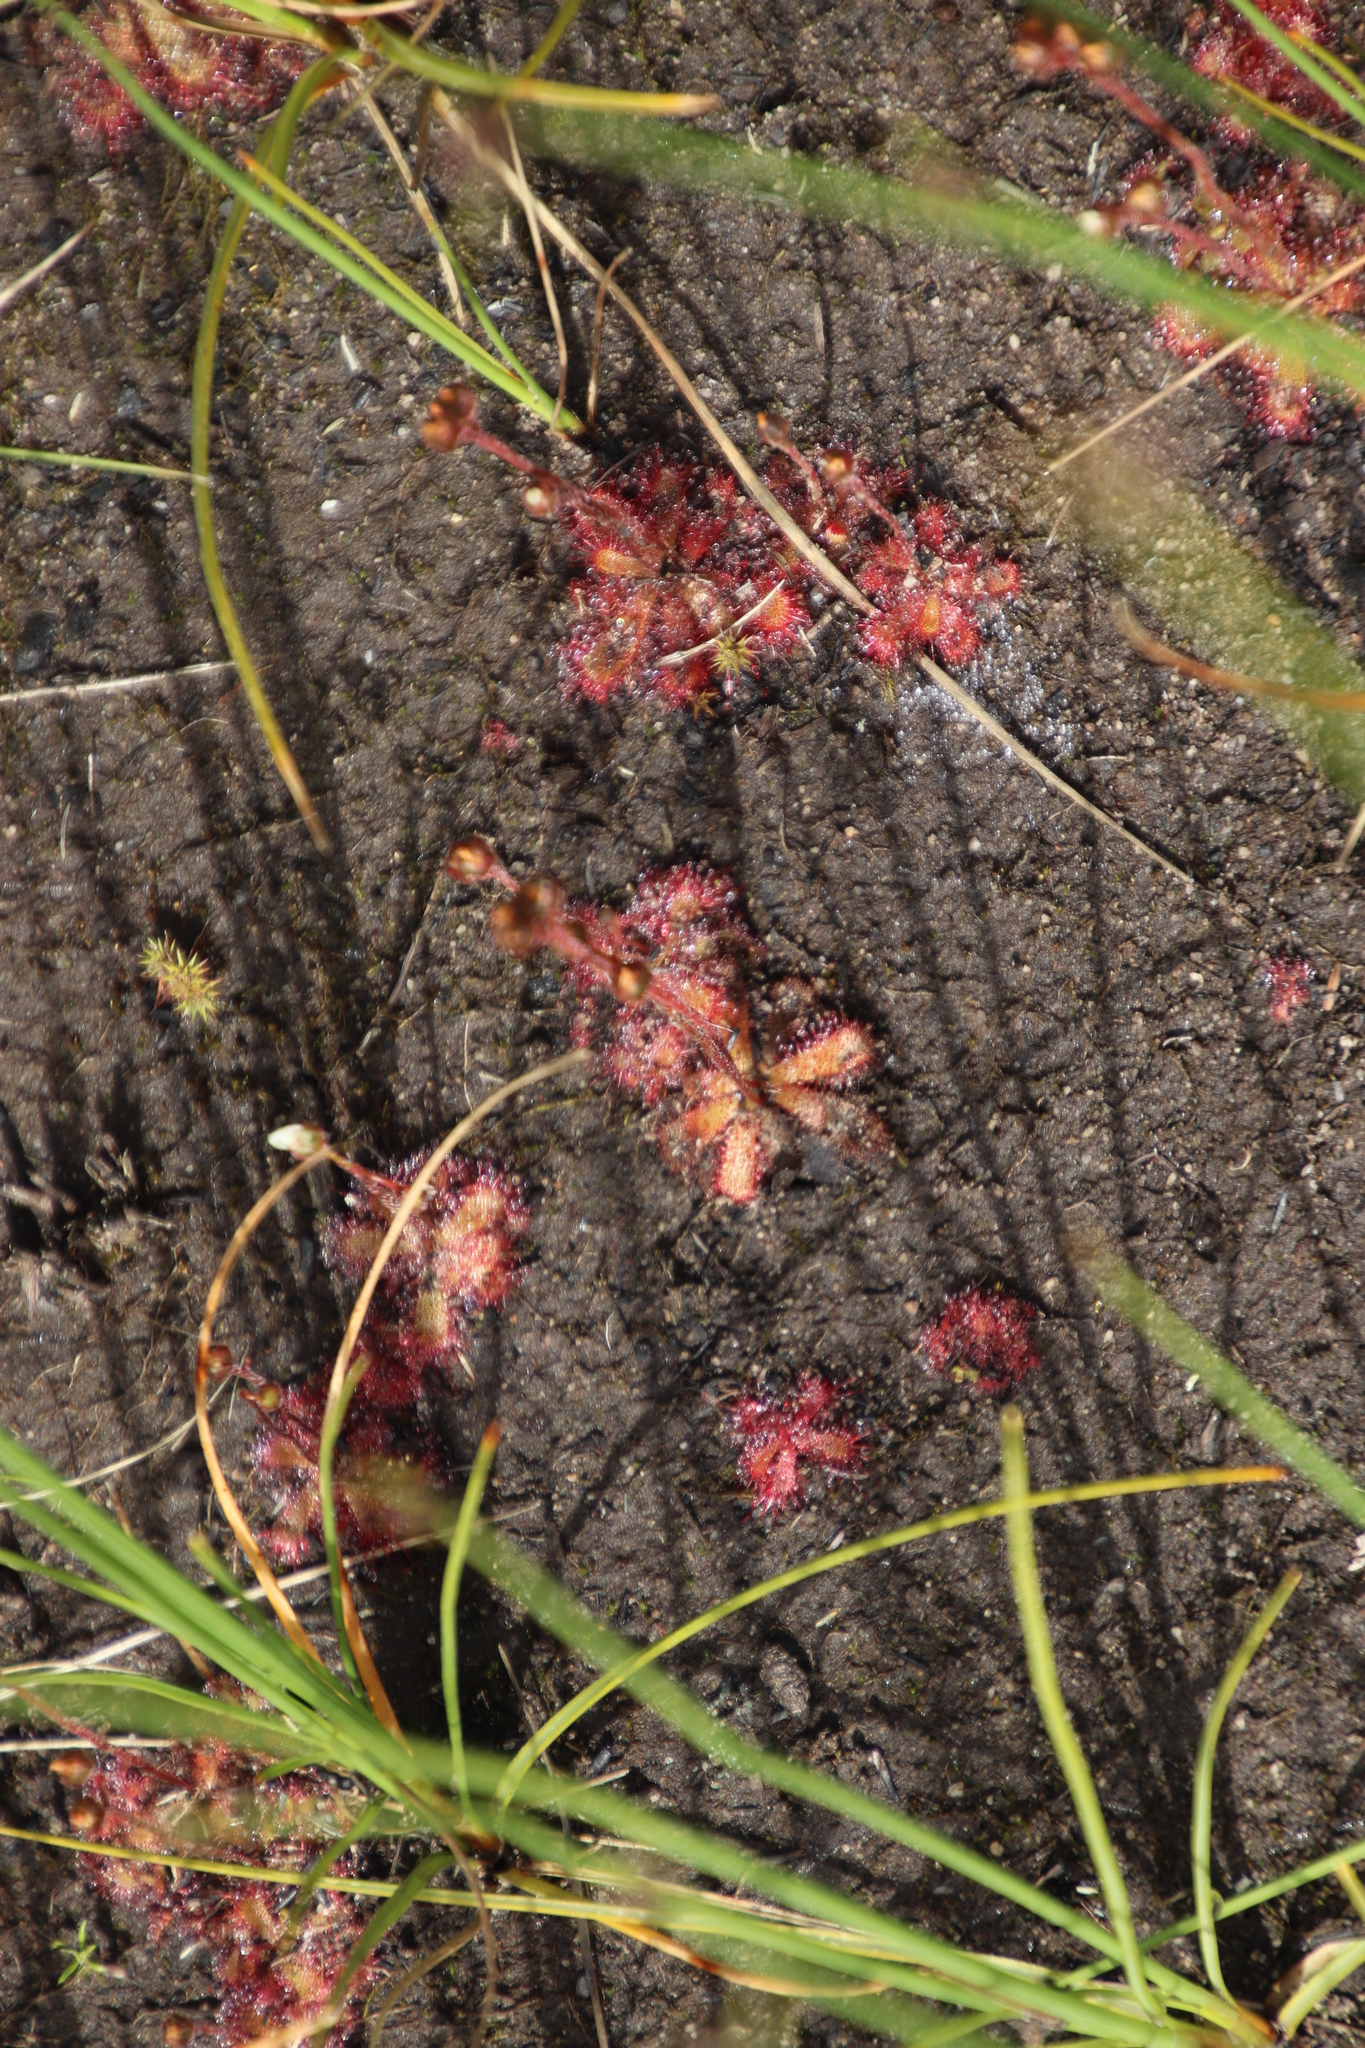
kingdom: Plantae
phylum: Tracheophyta
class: Magnoliopsida
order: Caryophyllales
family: Droseraceae
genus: Drosera
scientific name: Drosera trinervia
